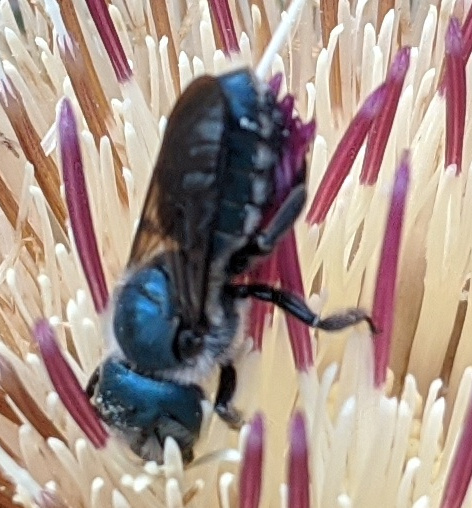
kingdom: Animalia
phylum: Arthropoda
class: Insecta
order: Hymenoptera
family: Megachilidae
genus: Osmia
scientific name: Osmia chalybea
